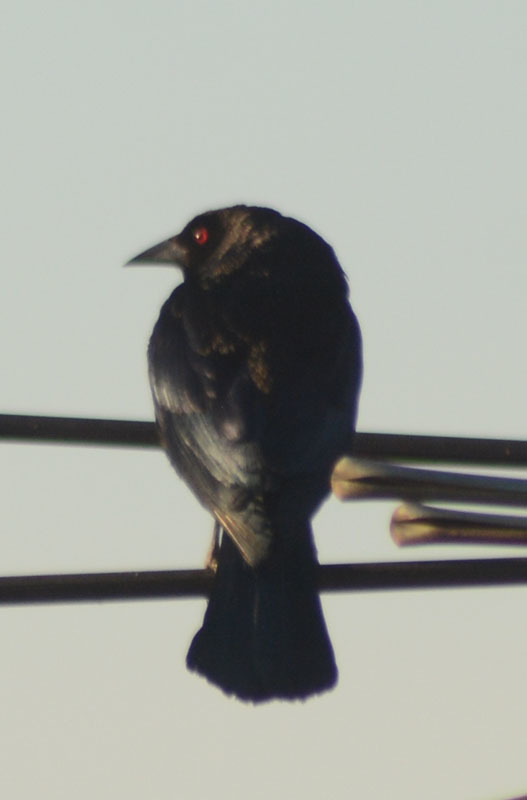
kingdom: Animalia
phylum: Chordata
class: Aves
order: Passeriformes
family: Icteridae
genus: Molothrus
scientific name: Molothrus aeneus
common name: Bronzed cowbird
